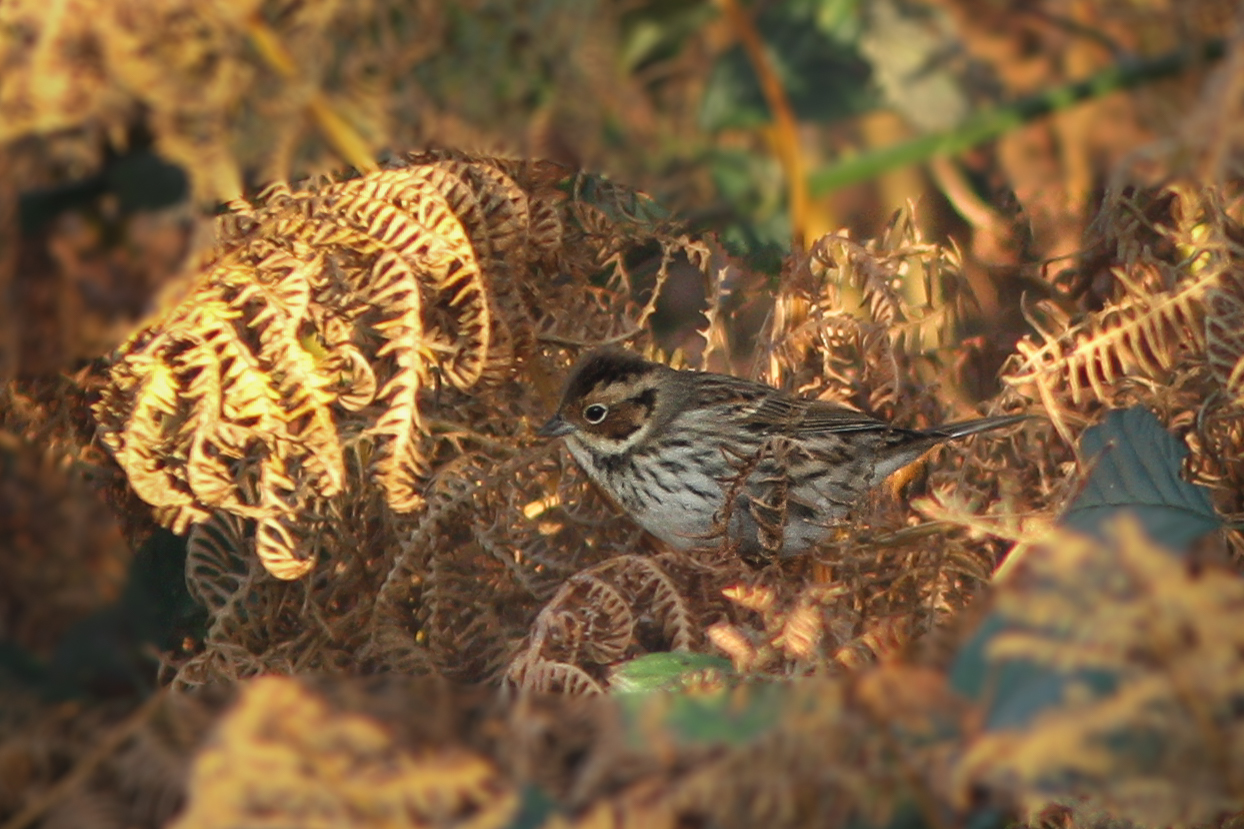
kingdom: Animalia
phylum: Chordata
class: Aves
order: Passeriformes
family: Emberizidae
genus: Emberiza
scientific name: Emberiza pusilla
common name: Little bunting
